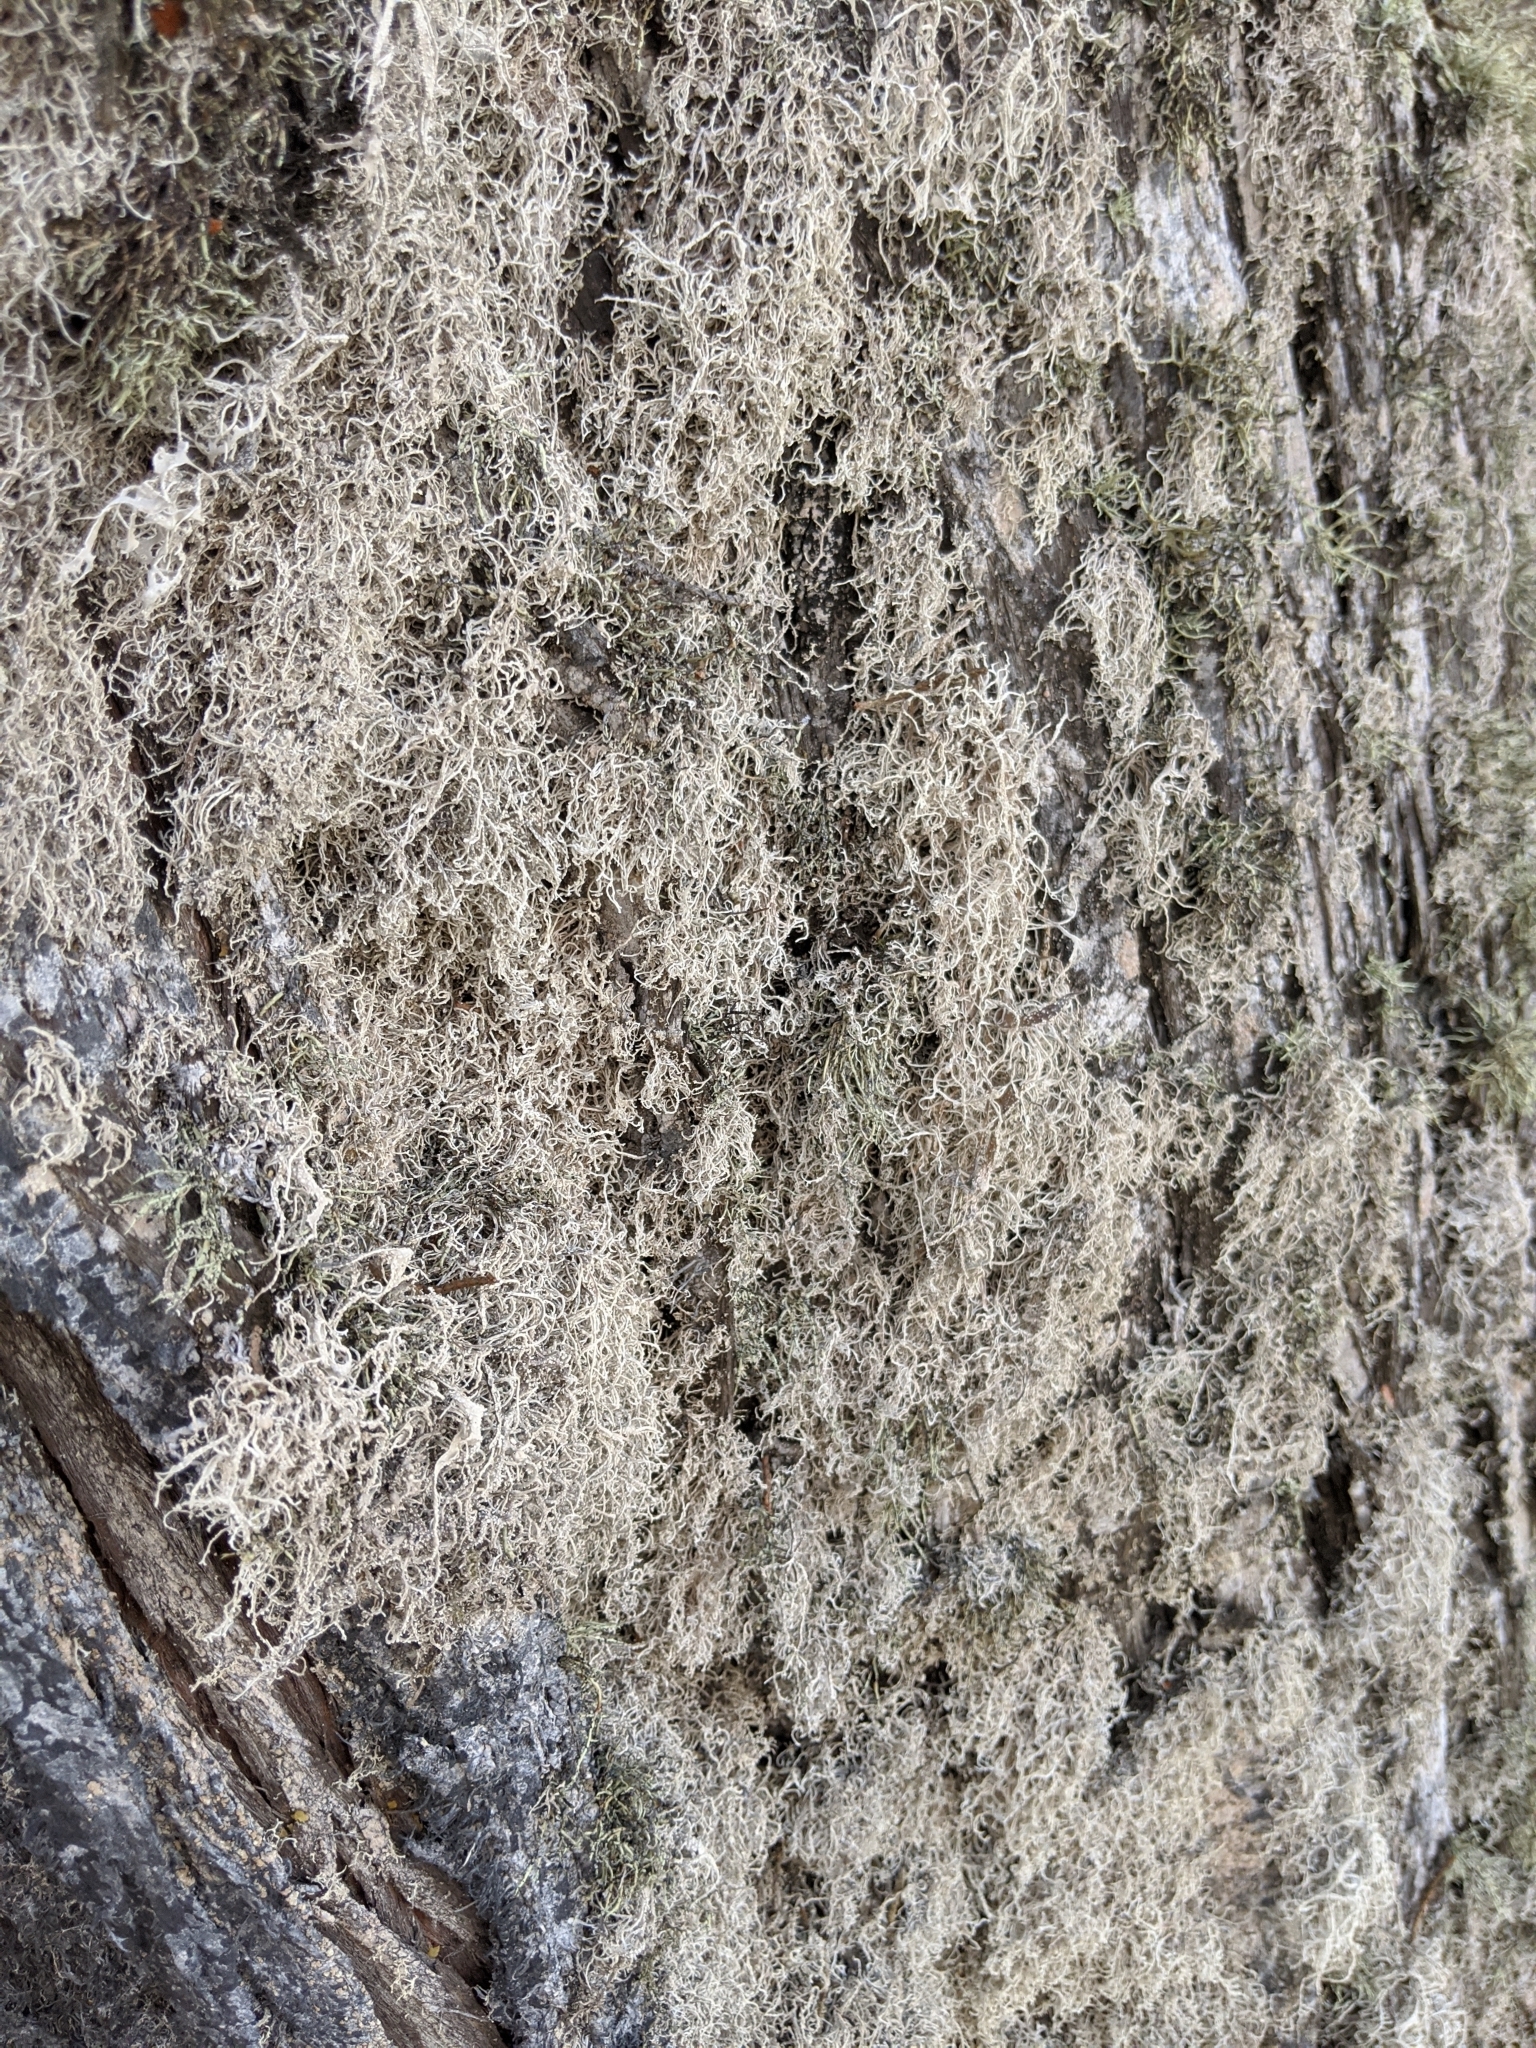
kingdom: Fungi
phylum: Ascomycota
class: Arthoniomycetes
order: Arthoniales
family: Roccellaceae
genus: Dendrographa
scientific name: Dendrographa leucophaea
